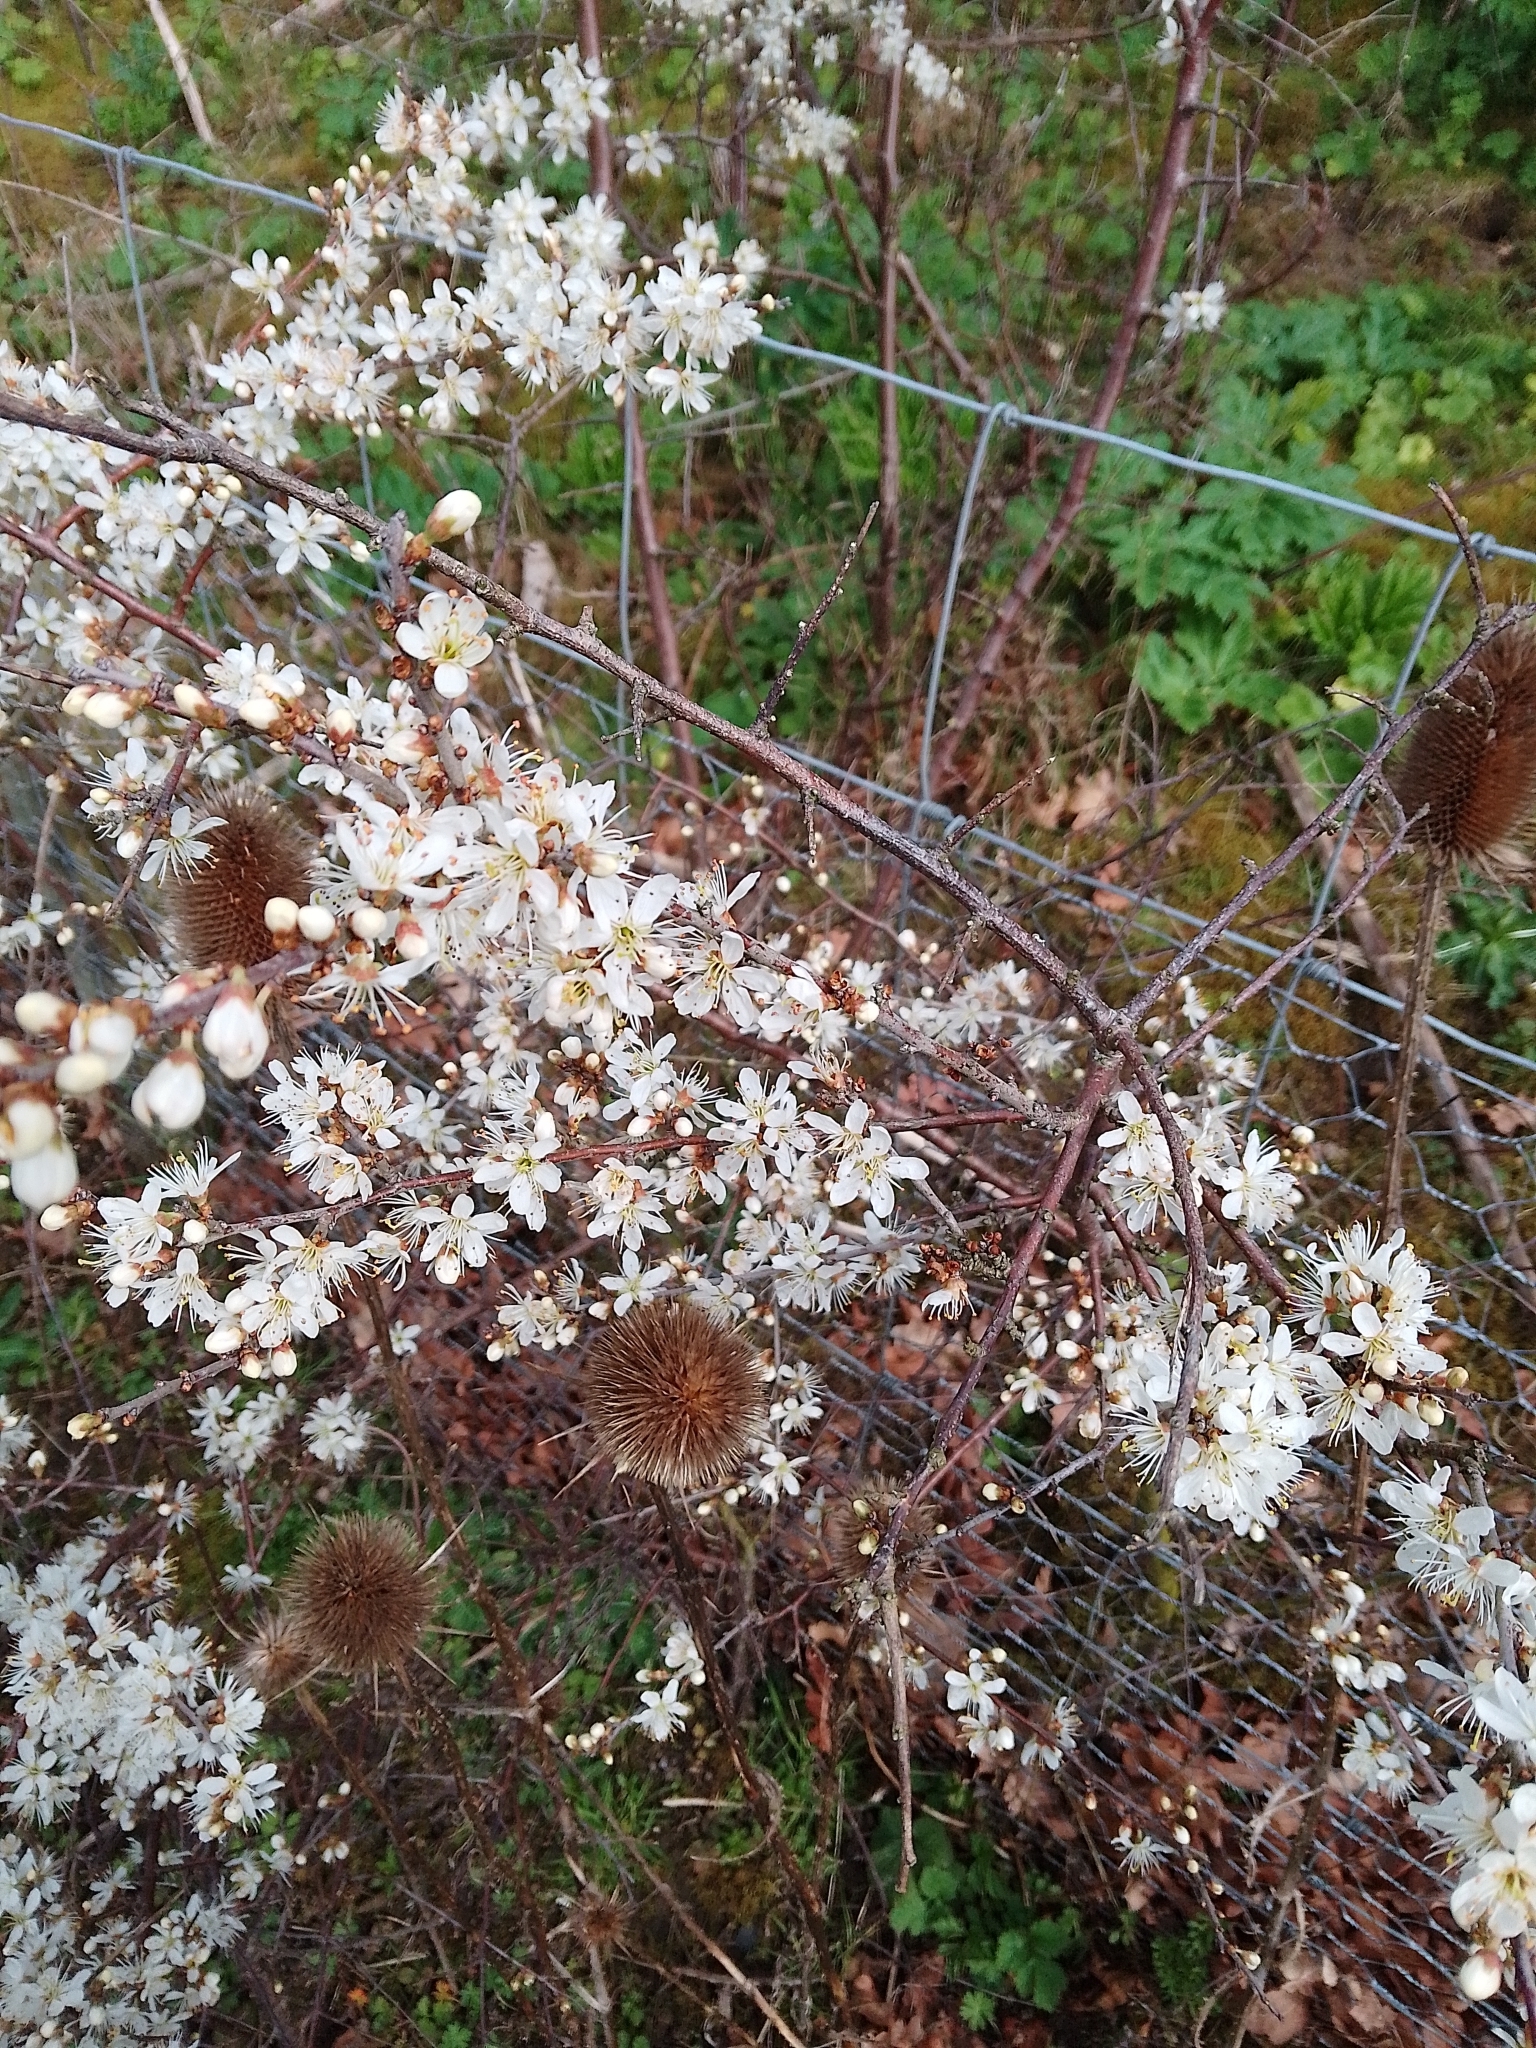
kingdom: Plantae
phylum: Tracheophyta
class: Magnoliopsida
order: Rosales
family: Rosaceae
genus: Prunus
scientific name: Prunus spinosa
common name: Blackthorn
